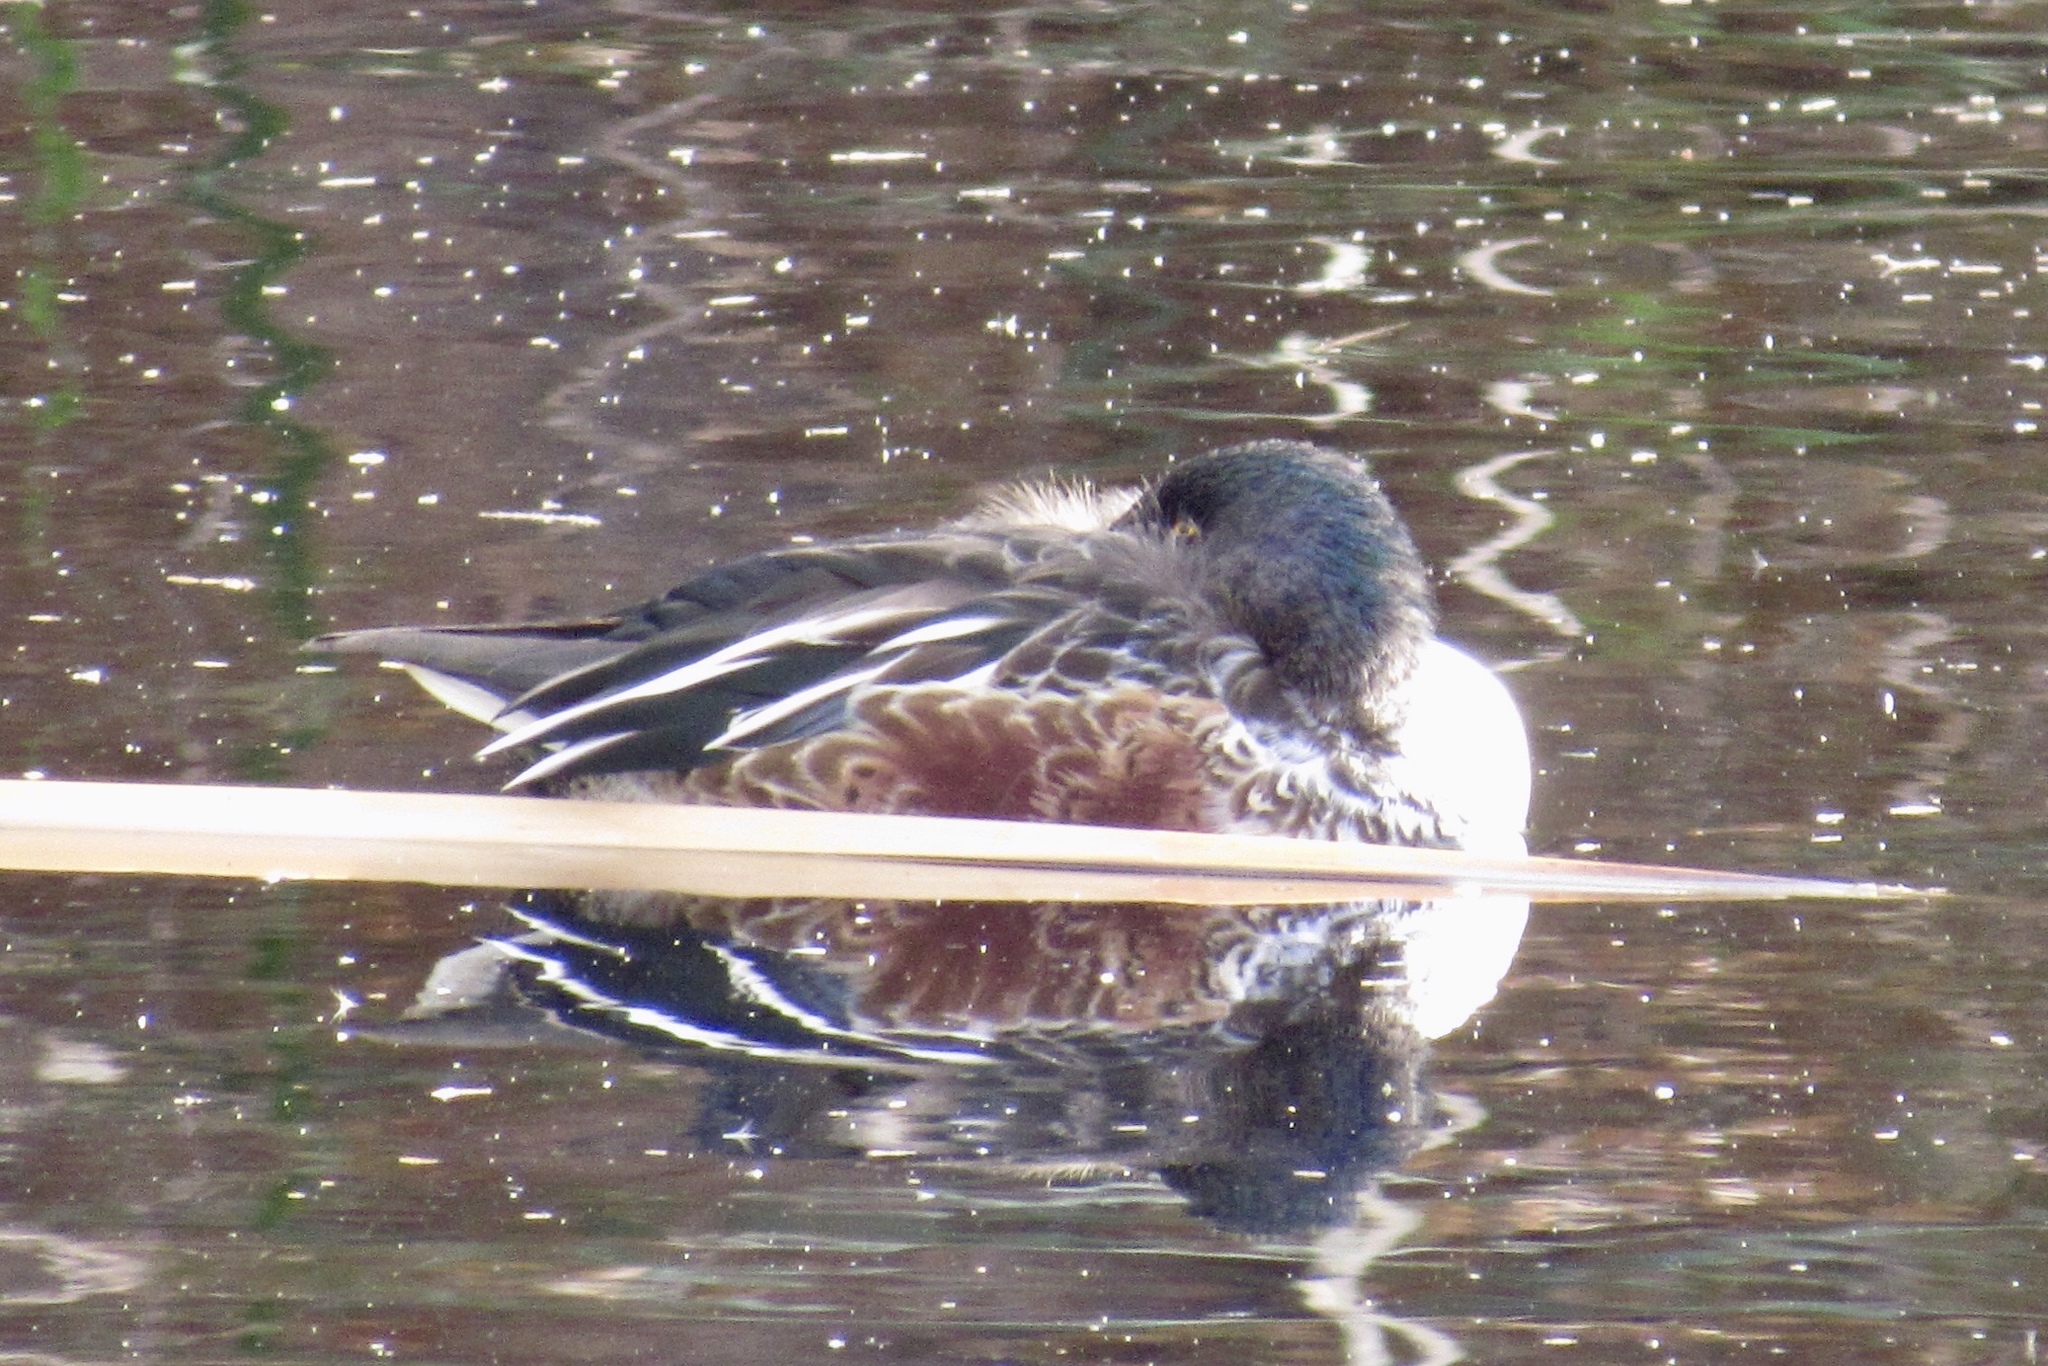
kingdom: Animalia
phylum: Chordata
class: Aves
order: Anseriformes
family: Anatidae
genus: Spatula
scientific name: Spatula clypeata
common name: Northern shoveler
